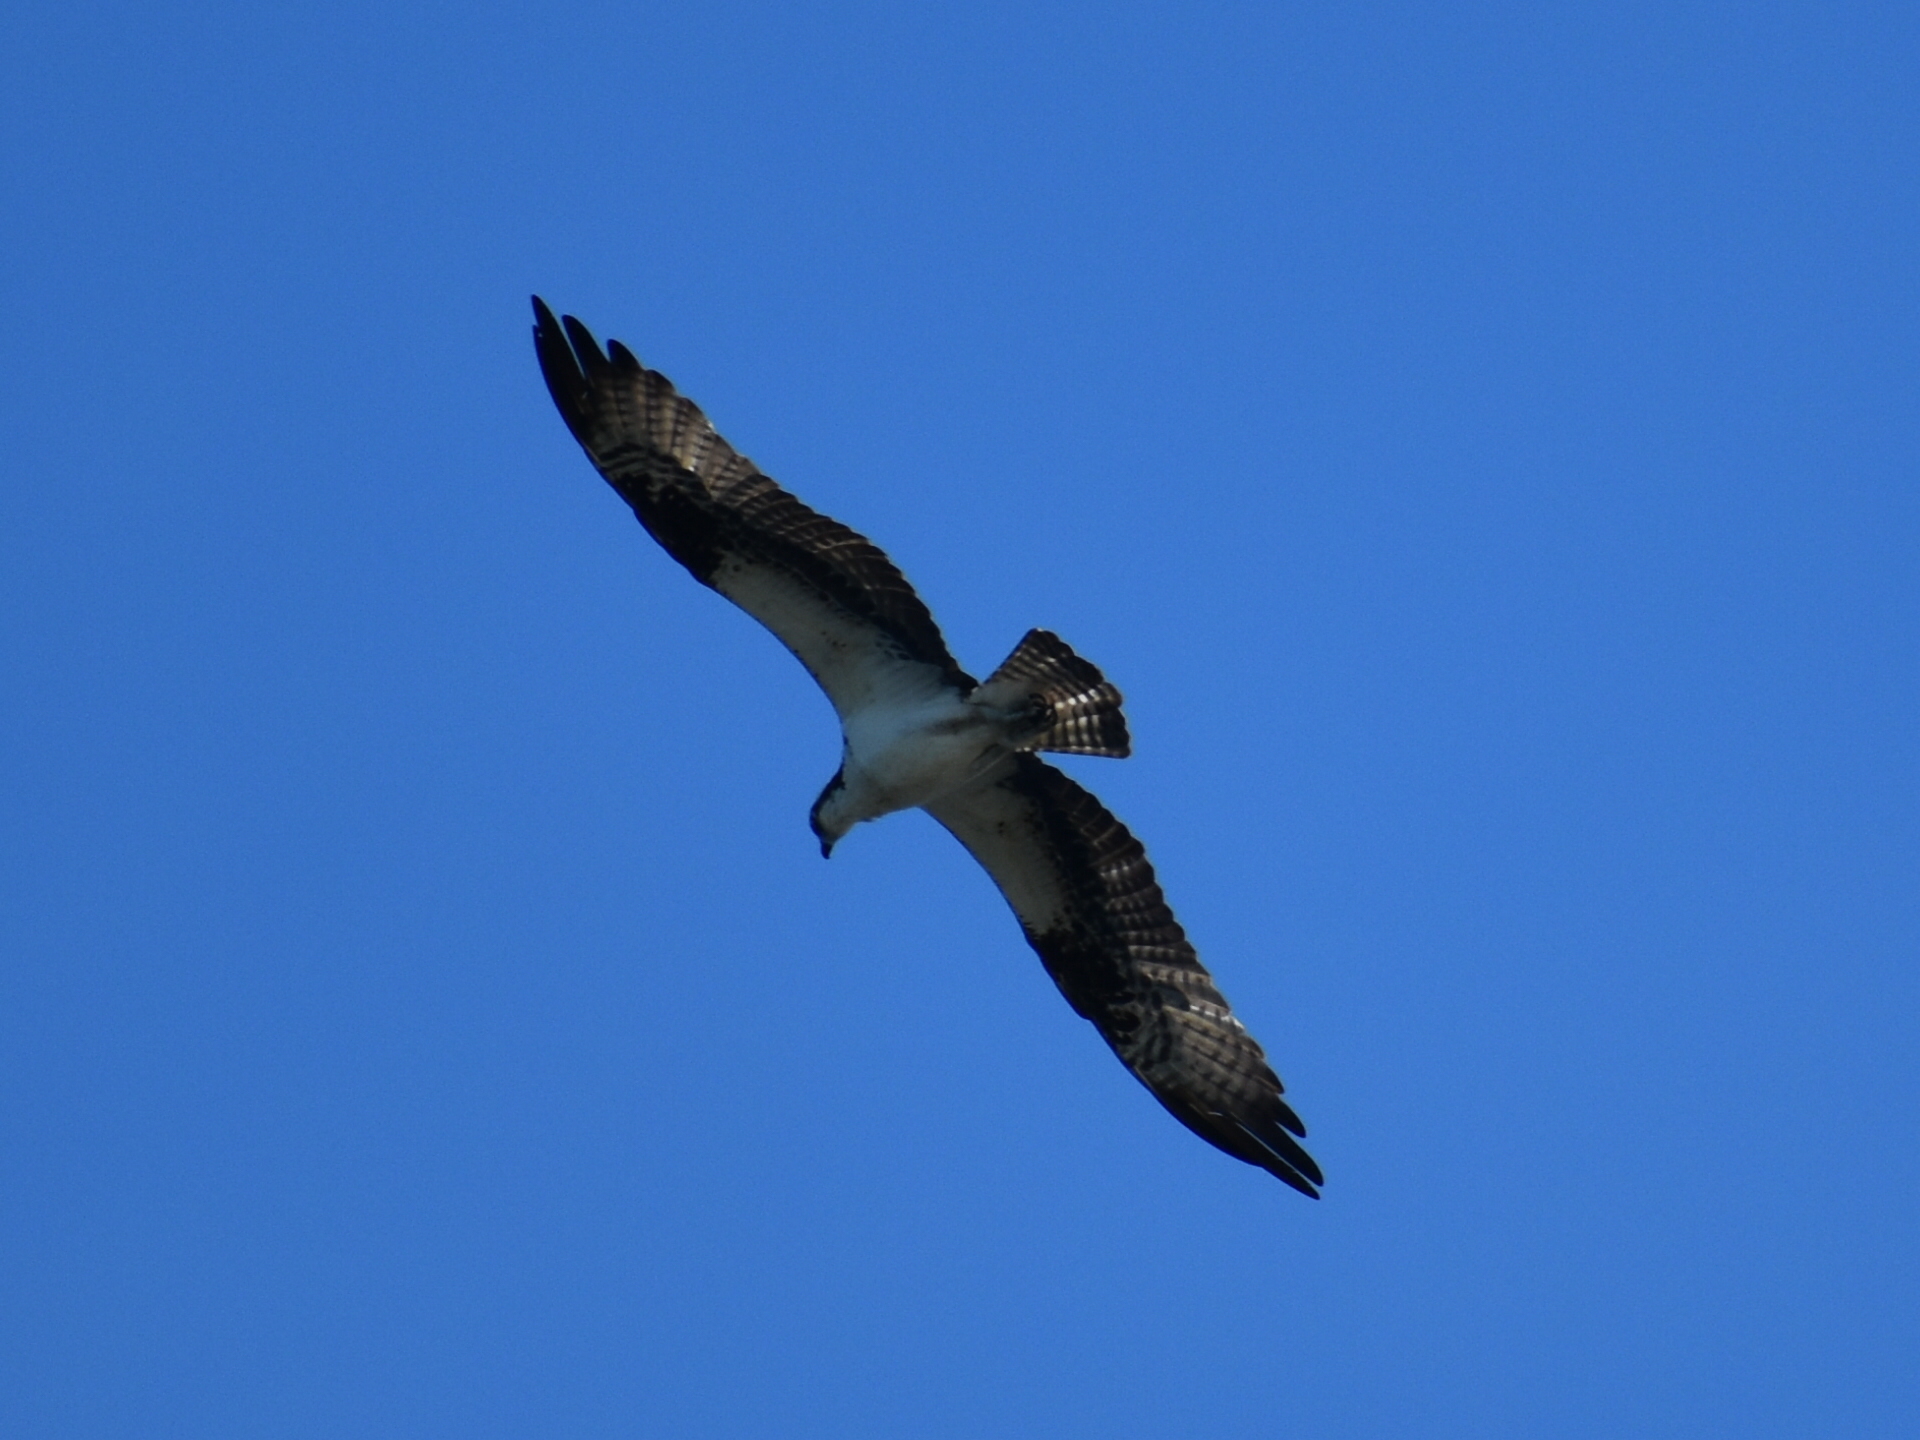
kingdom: Animalia
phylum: Chordata
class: Aves
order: Accipitriformes
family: Pandionidae
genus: Pandion
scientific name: Pandion haliaetus
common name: Osprey
